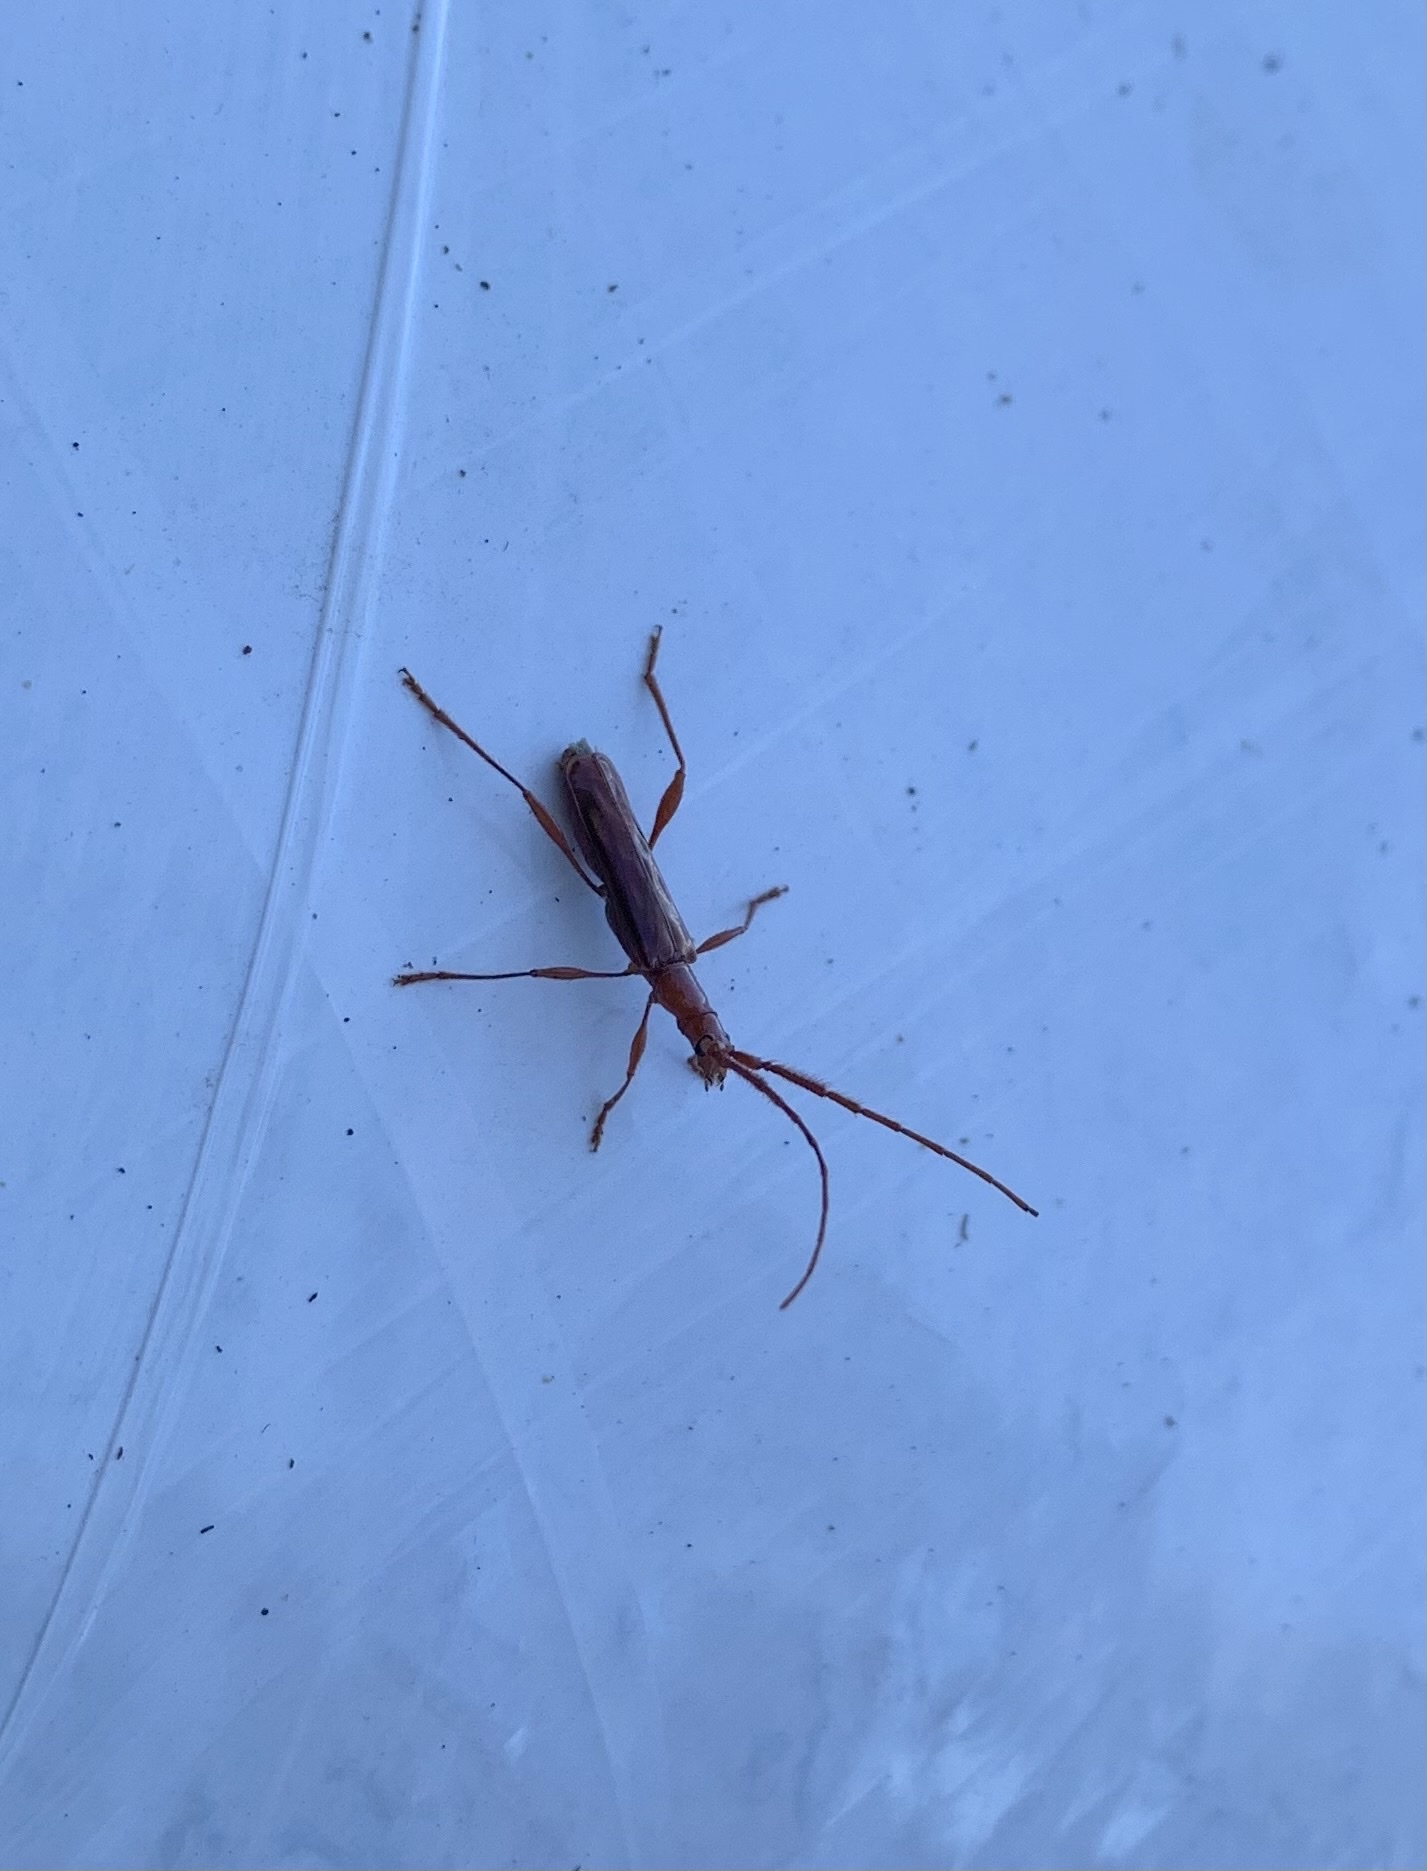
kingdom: Animalia
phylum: Arthropoda
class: Insecta
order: Coleoptera
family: Cerambycidae
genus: Chenoderus
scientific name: Chenoderus testaceus
